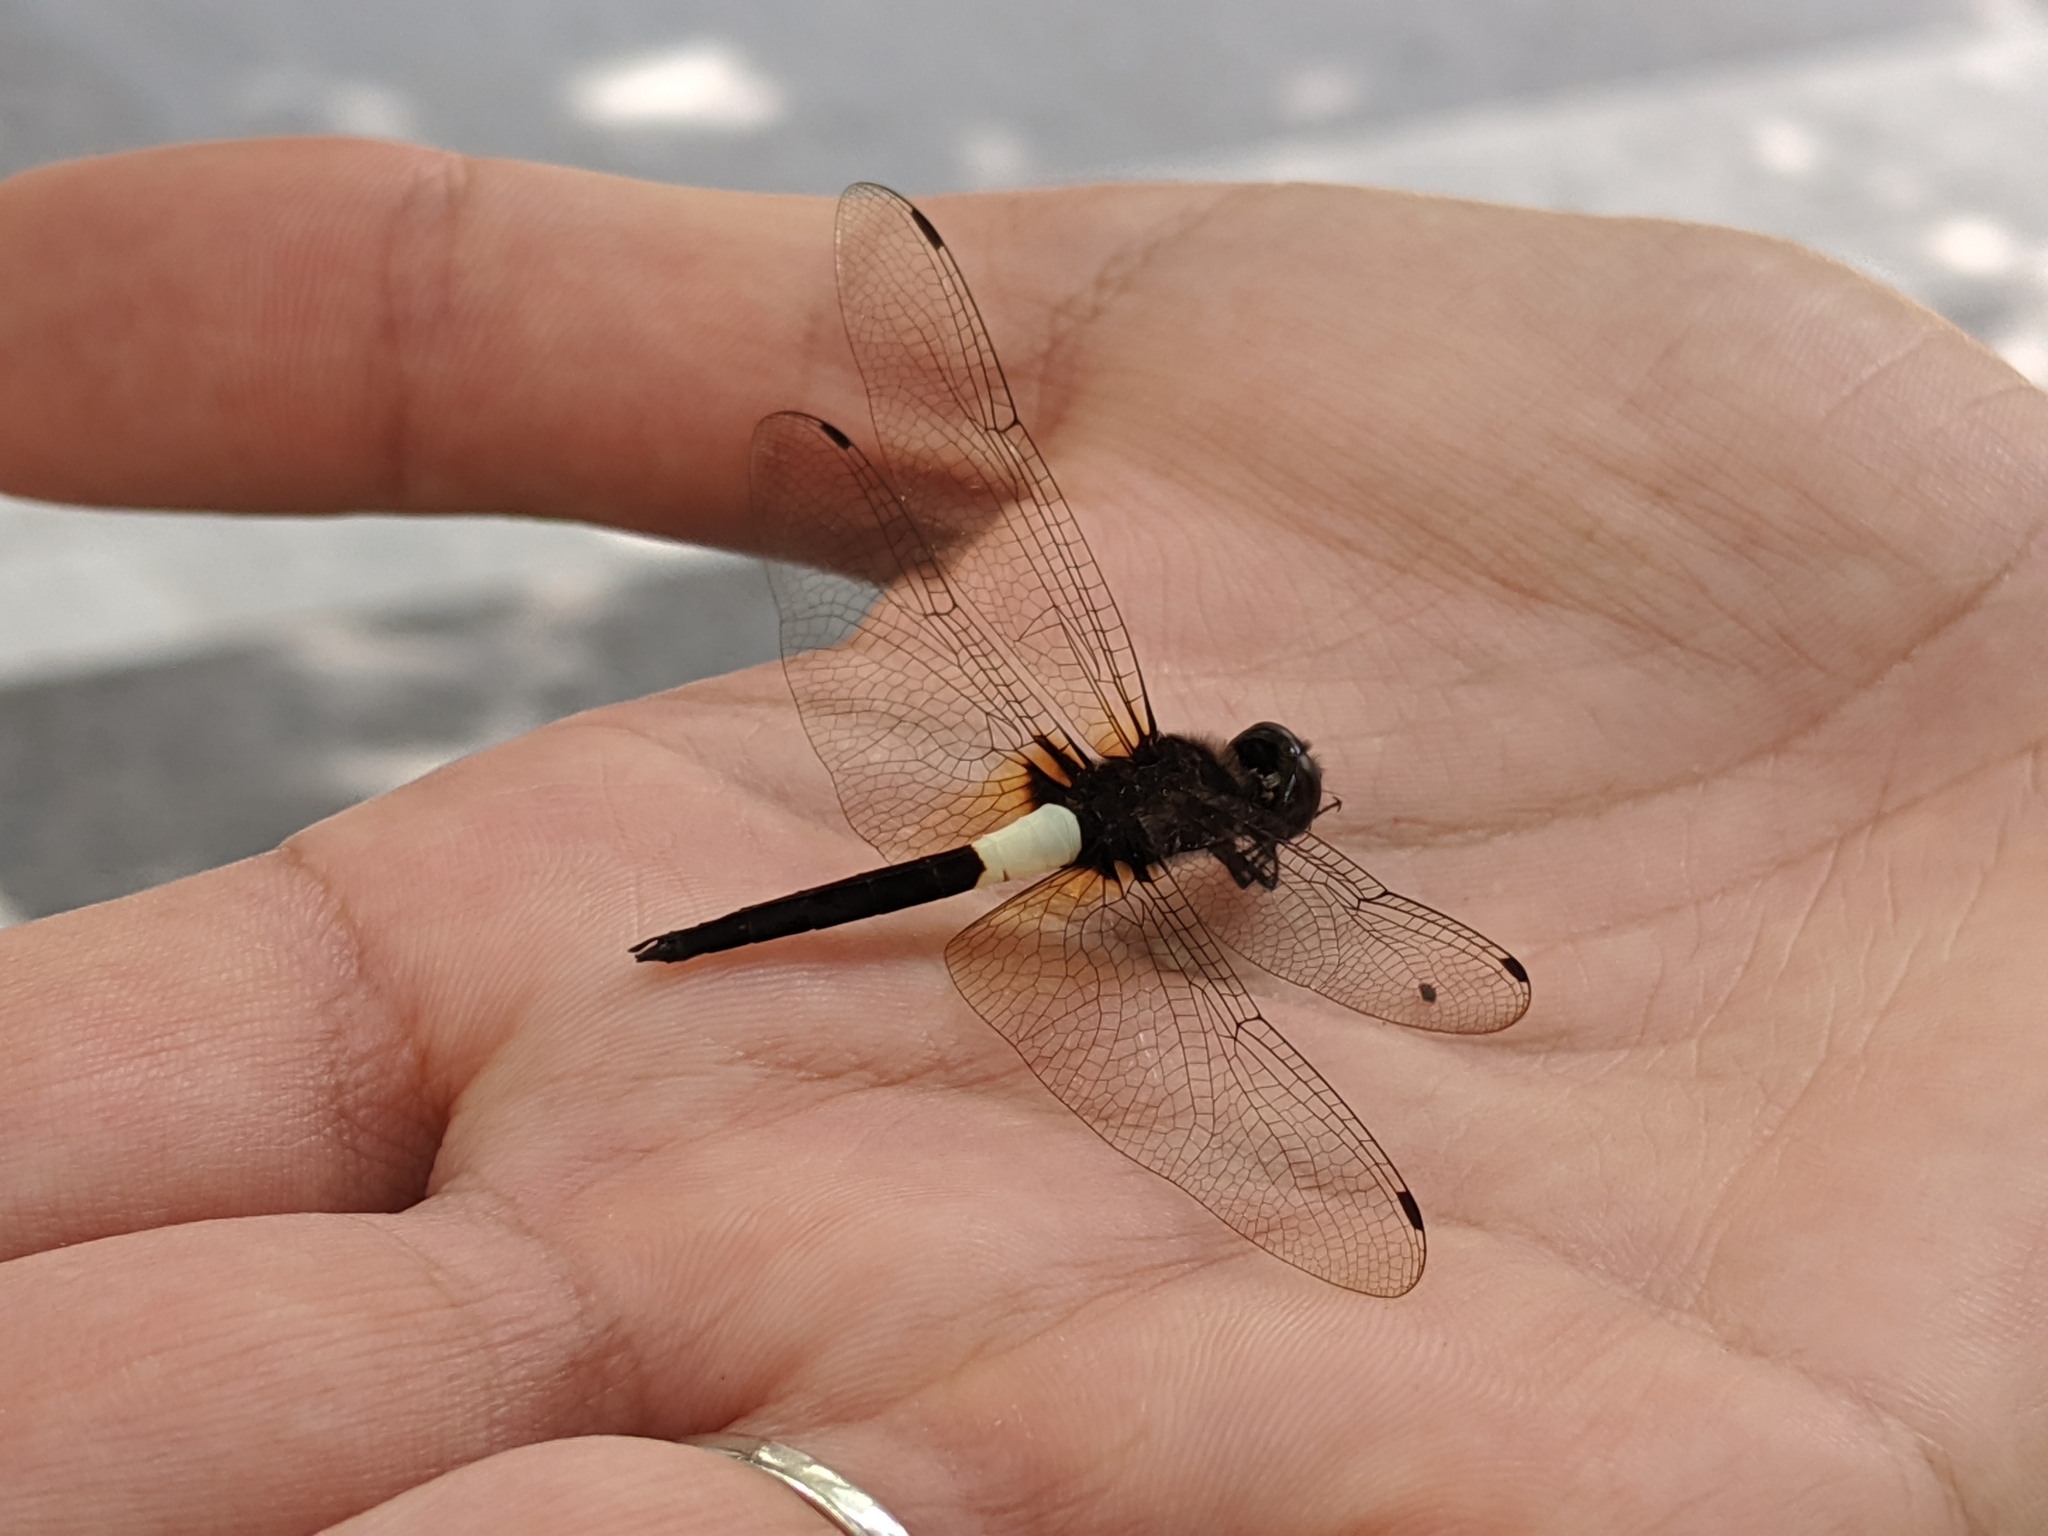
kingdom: Animalia
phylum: Arthropoda
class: Insecta
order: Odonata
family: Libellulidae
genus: Pseudothemis
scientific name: Pseudothemis jorina
